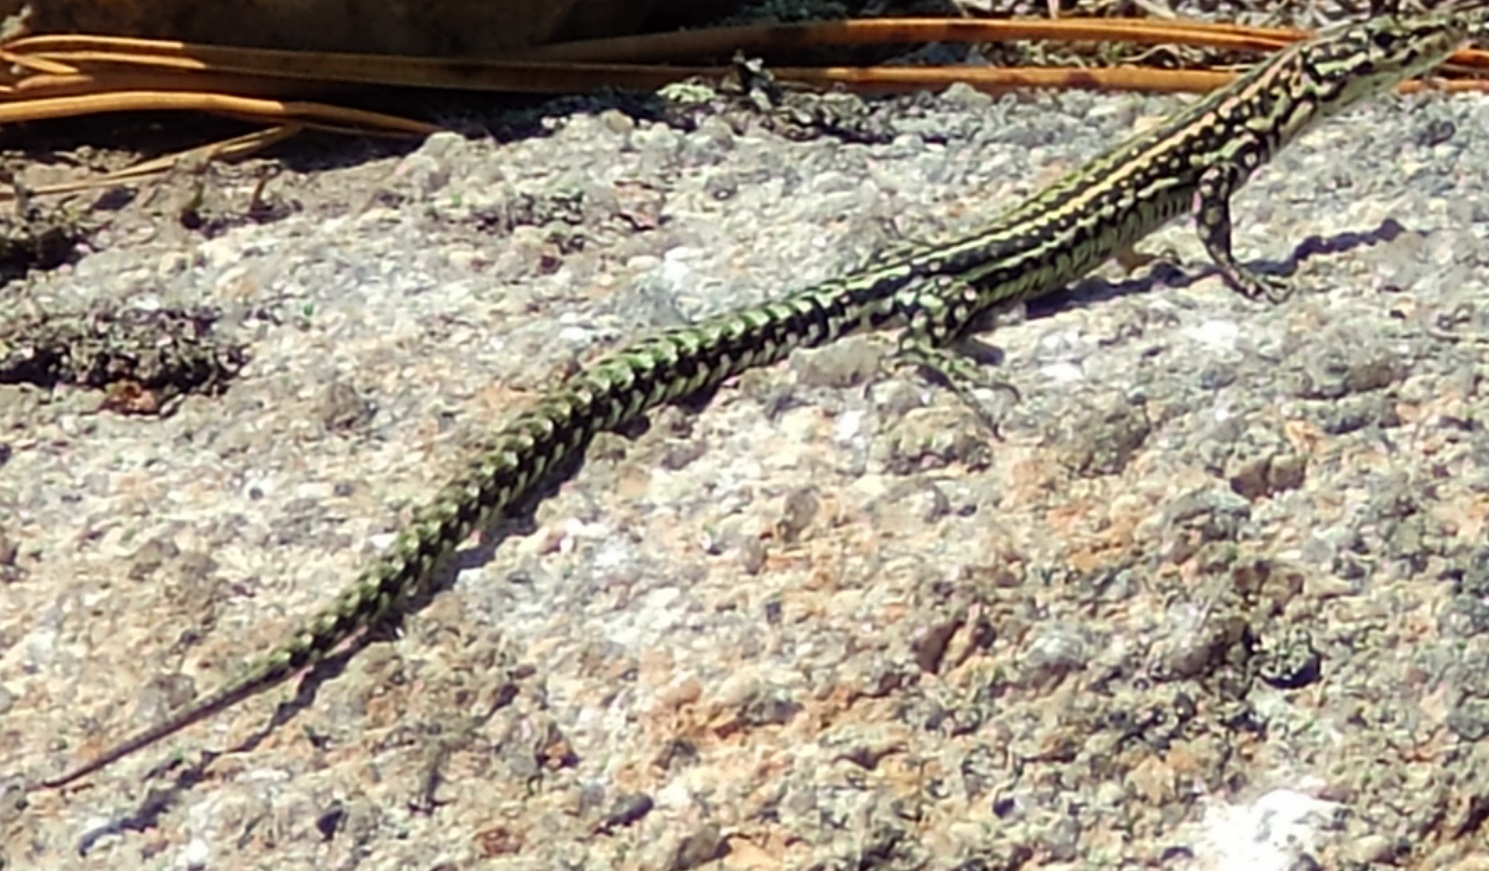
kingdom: Animalia
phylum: Chordata
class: Squamata
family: Lacertidae
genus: Podarcis
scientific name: Podarcis
